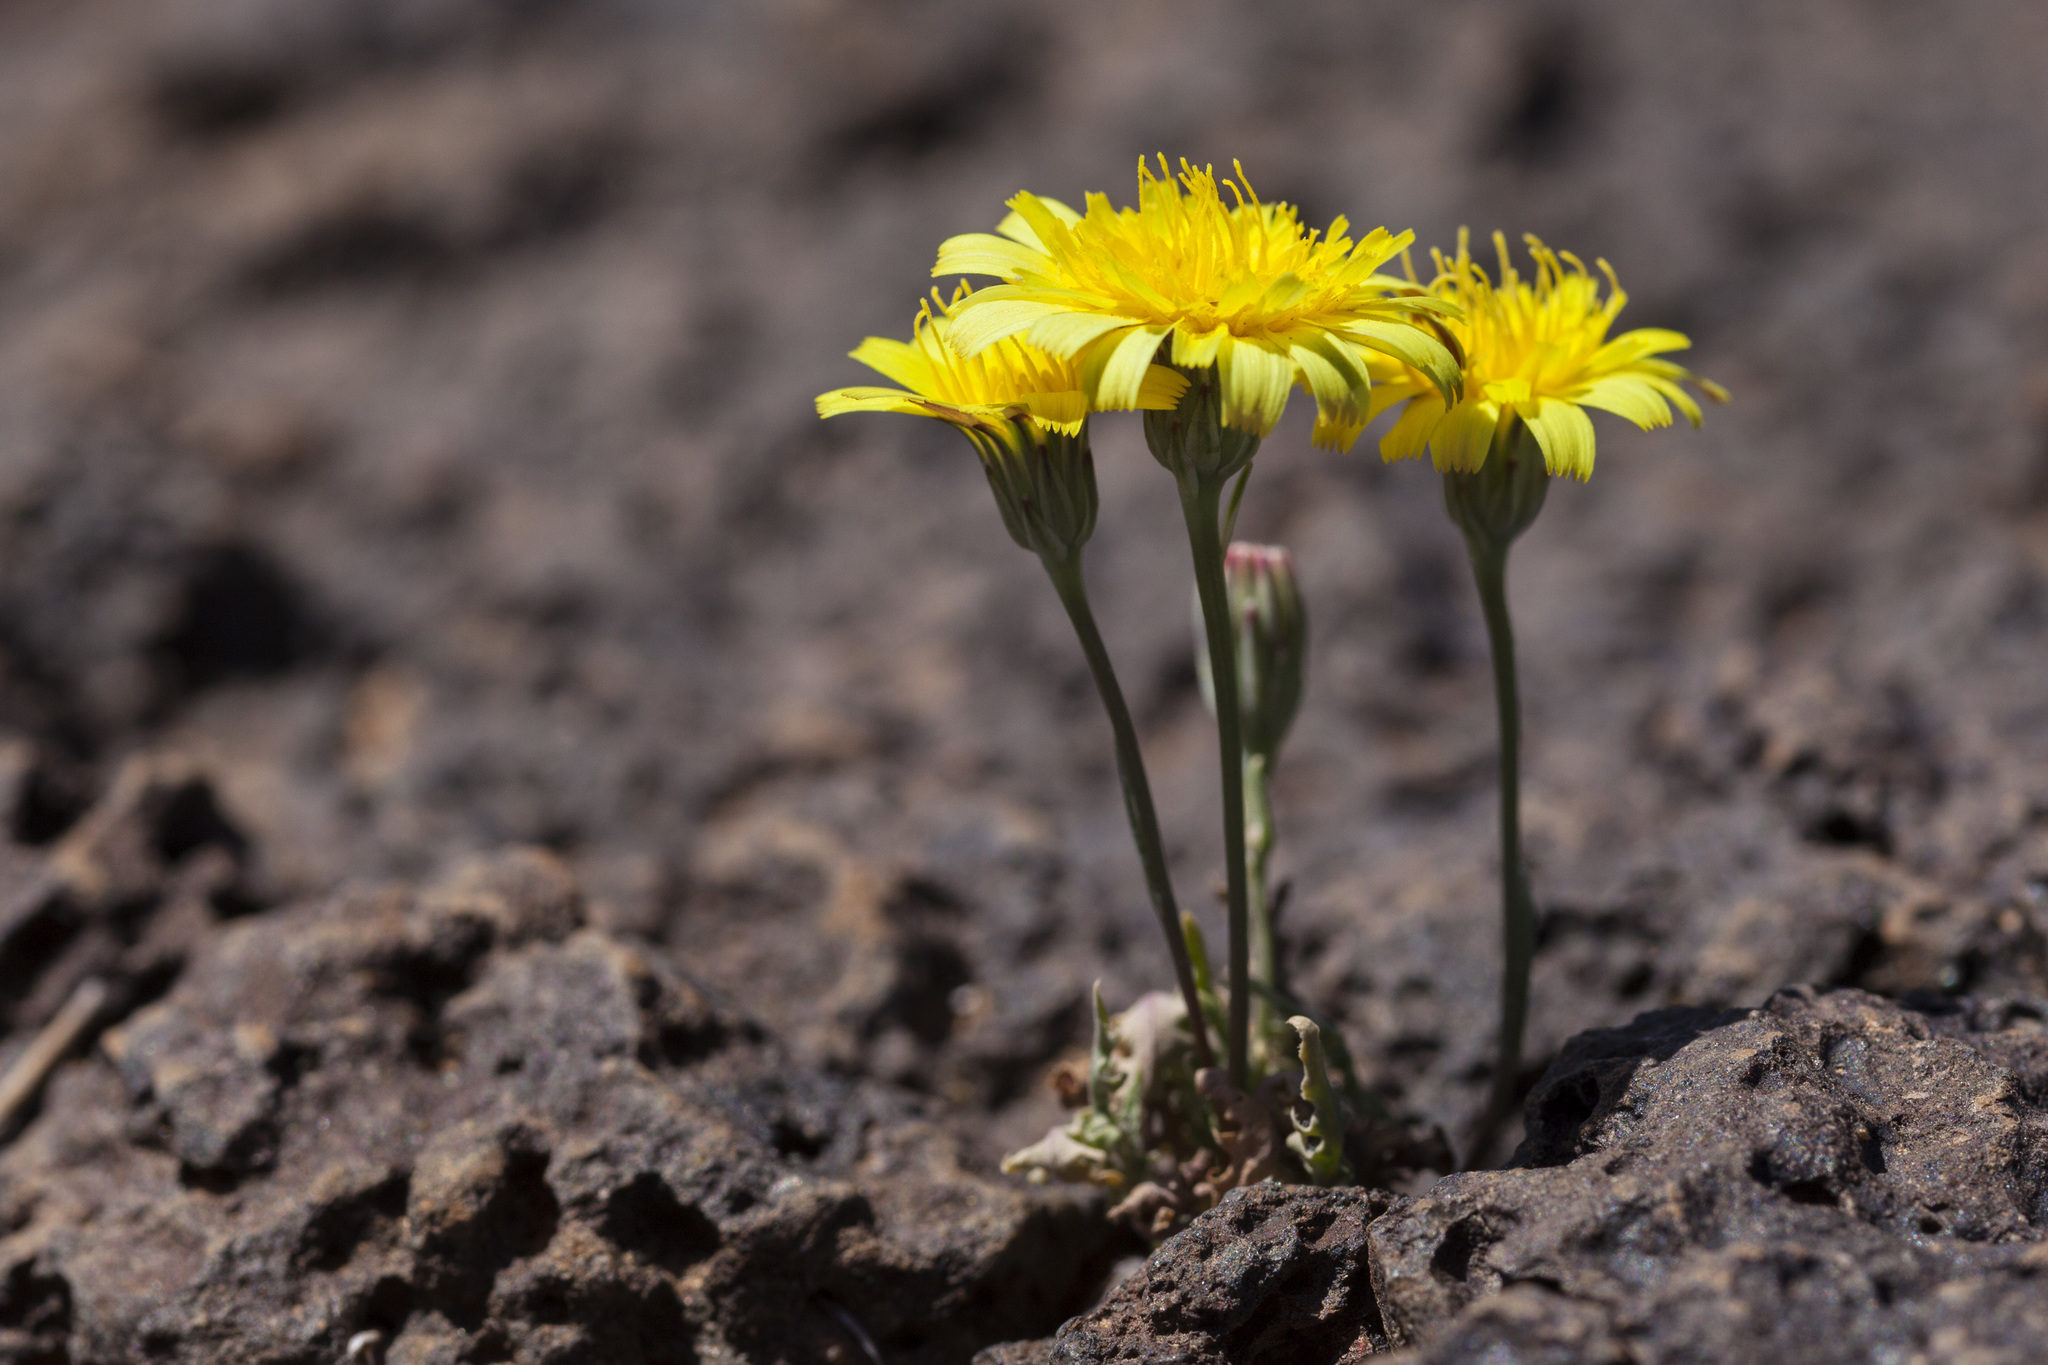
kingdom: Plantae
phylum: Tracheophyta
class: Magnoliopsida
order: Asterales
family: Asteraceae
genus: Malacothrix
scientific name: Malacothrix fendleri
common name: Fendler's desert-dandelion
